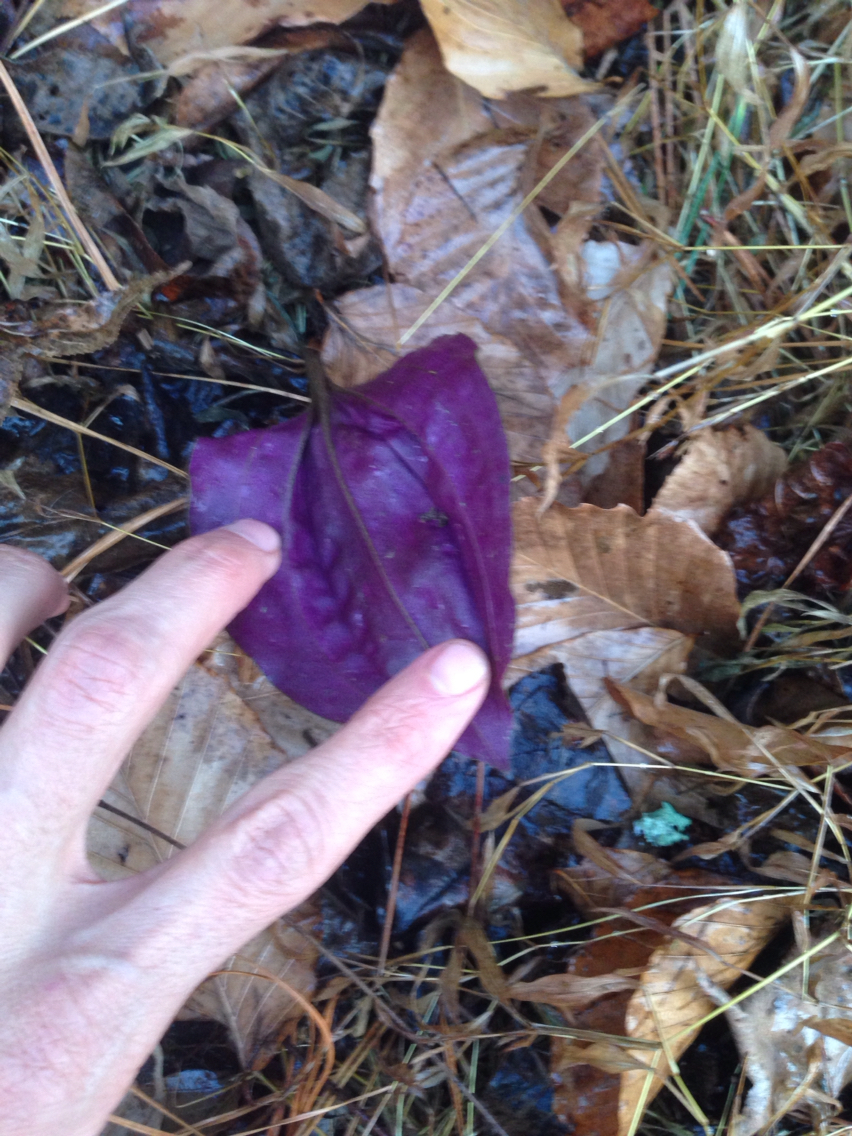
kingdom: Plantae
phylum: Tracheophyta
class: Liliopsida
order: Asparagales
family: Orchidaceae
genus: Tipularia
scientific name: Tipularia discolor
